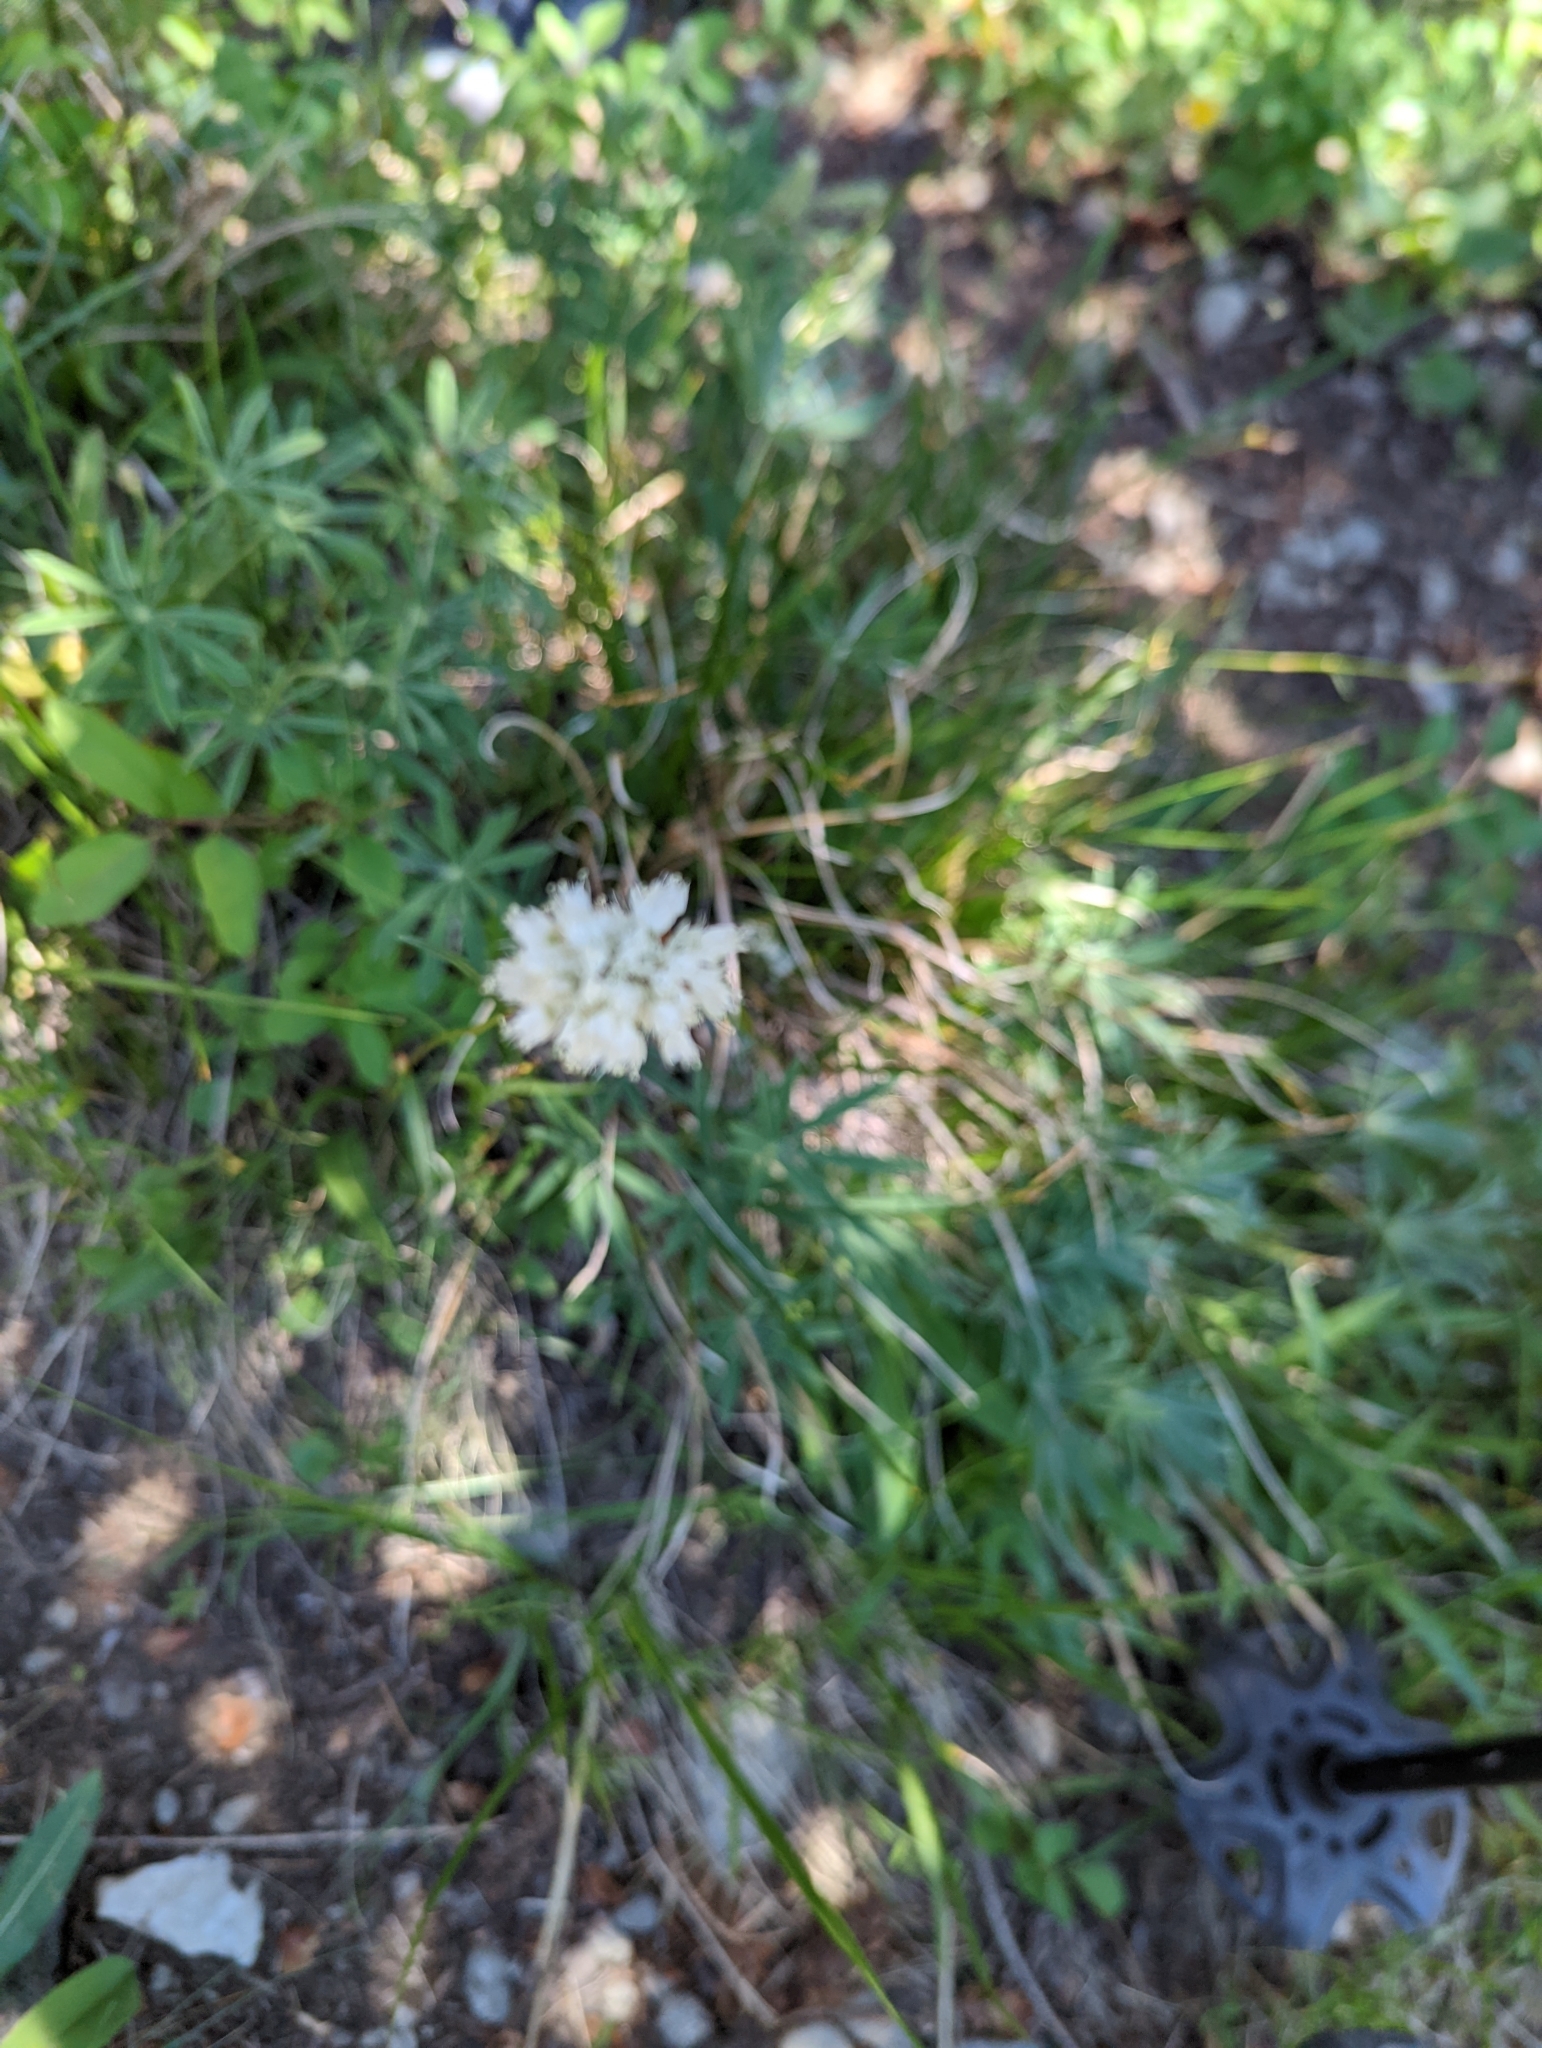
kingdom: Plantae
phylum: Tracheophyta
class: Magnoliopsida
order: Caryophyllales
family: Polygonaceae
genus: Bistorta
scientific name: Bistorta bistortoides
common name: American bistort
